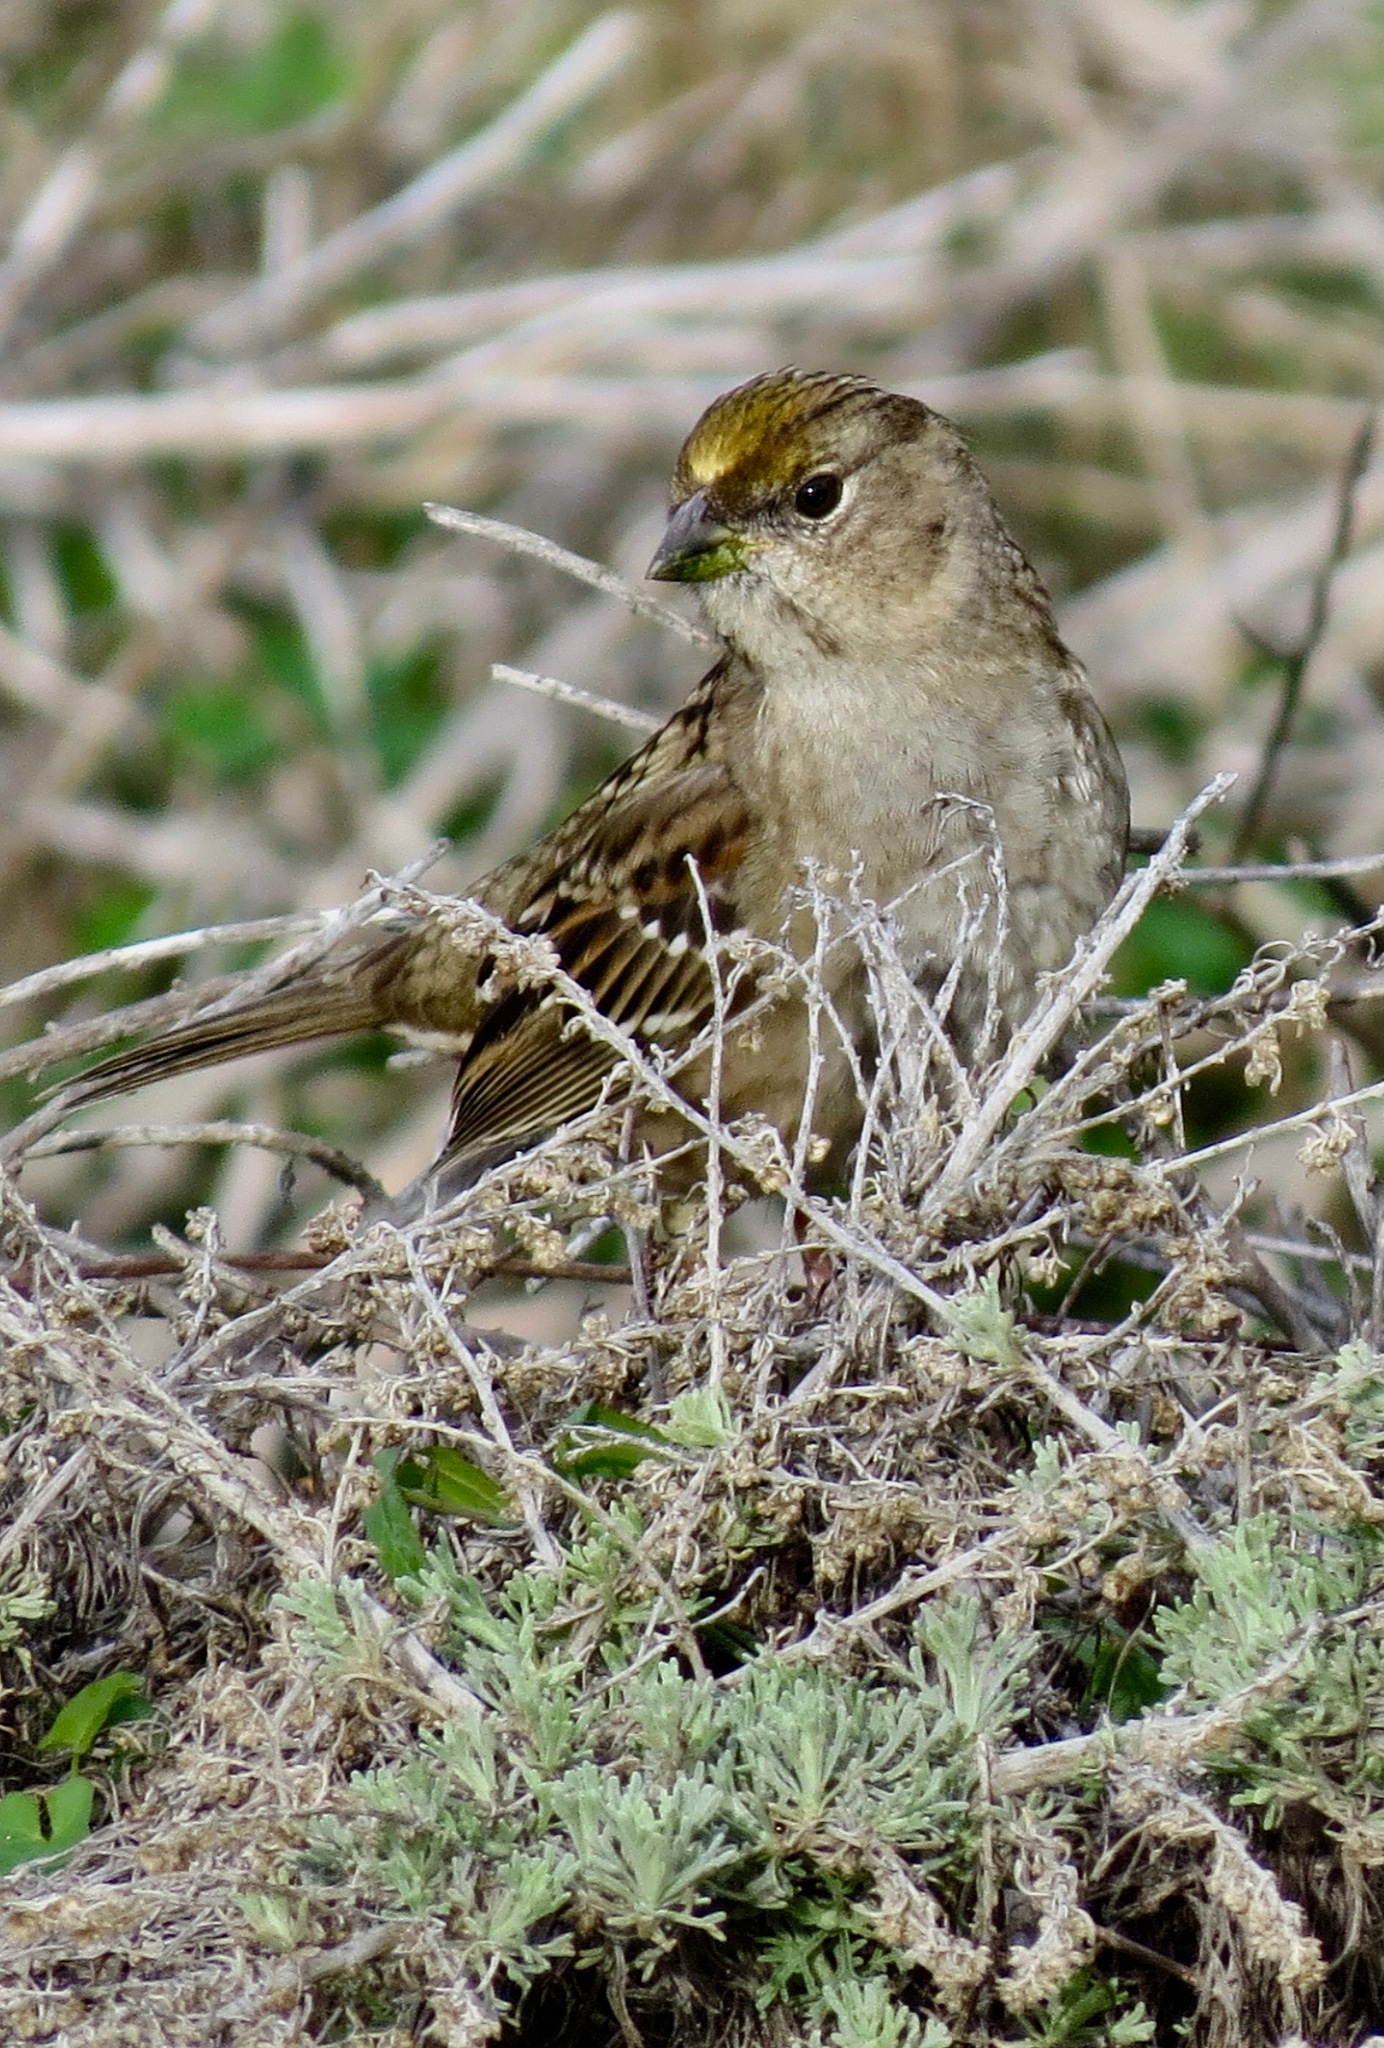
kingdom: Animalia
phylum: Chordata
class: Aves
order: Passeriformes
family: Passerellidae
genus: Zonotrichia
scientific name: Zonotrichia atricapilla
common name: Golden-crowned sparrow
